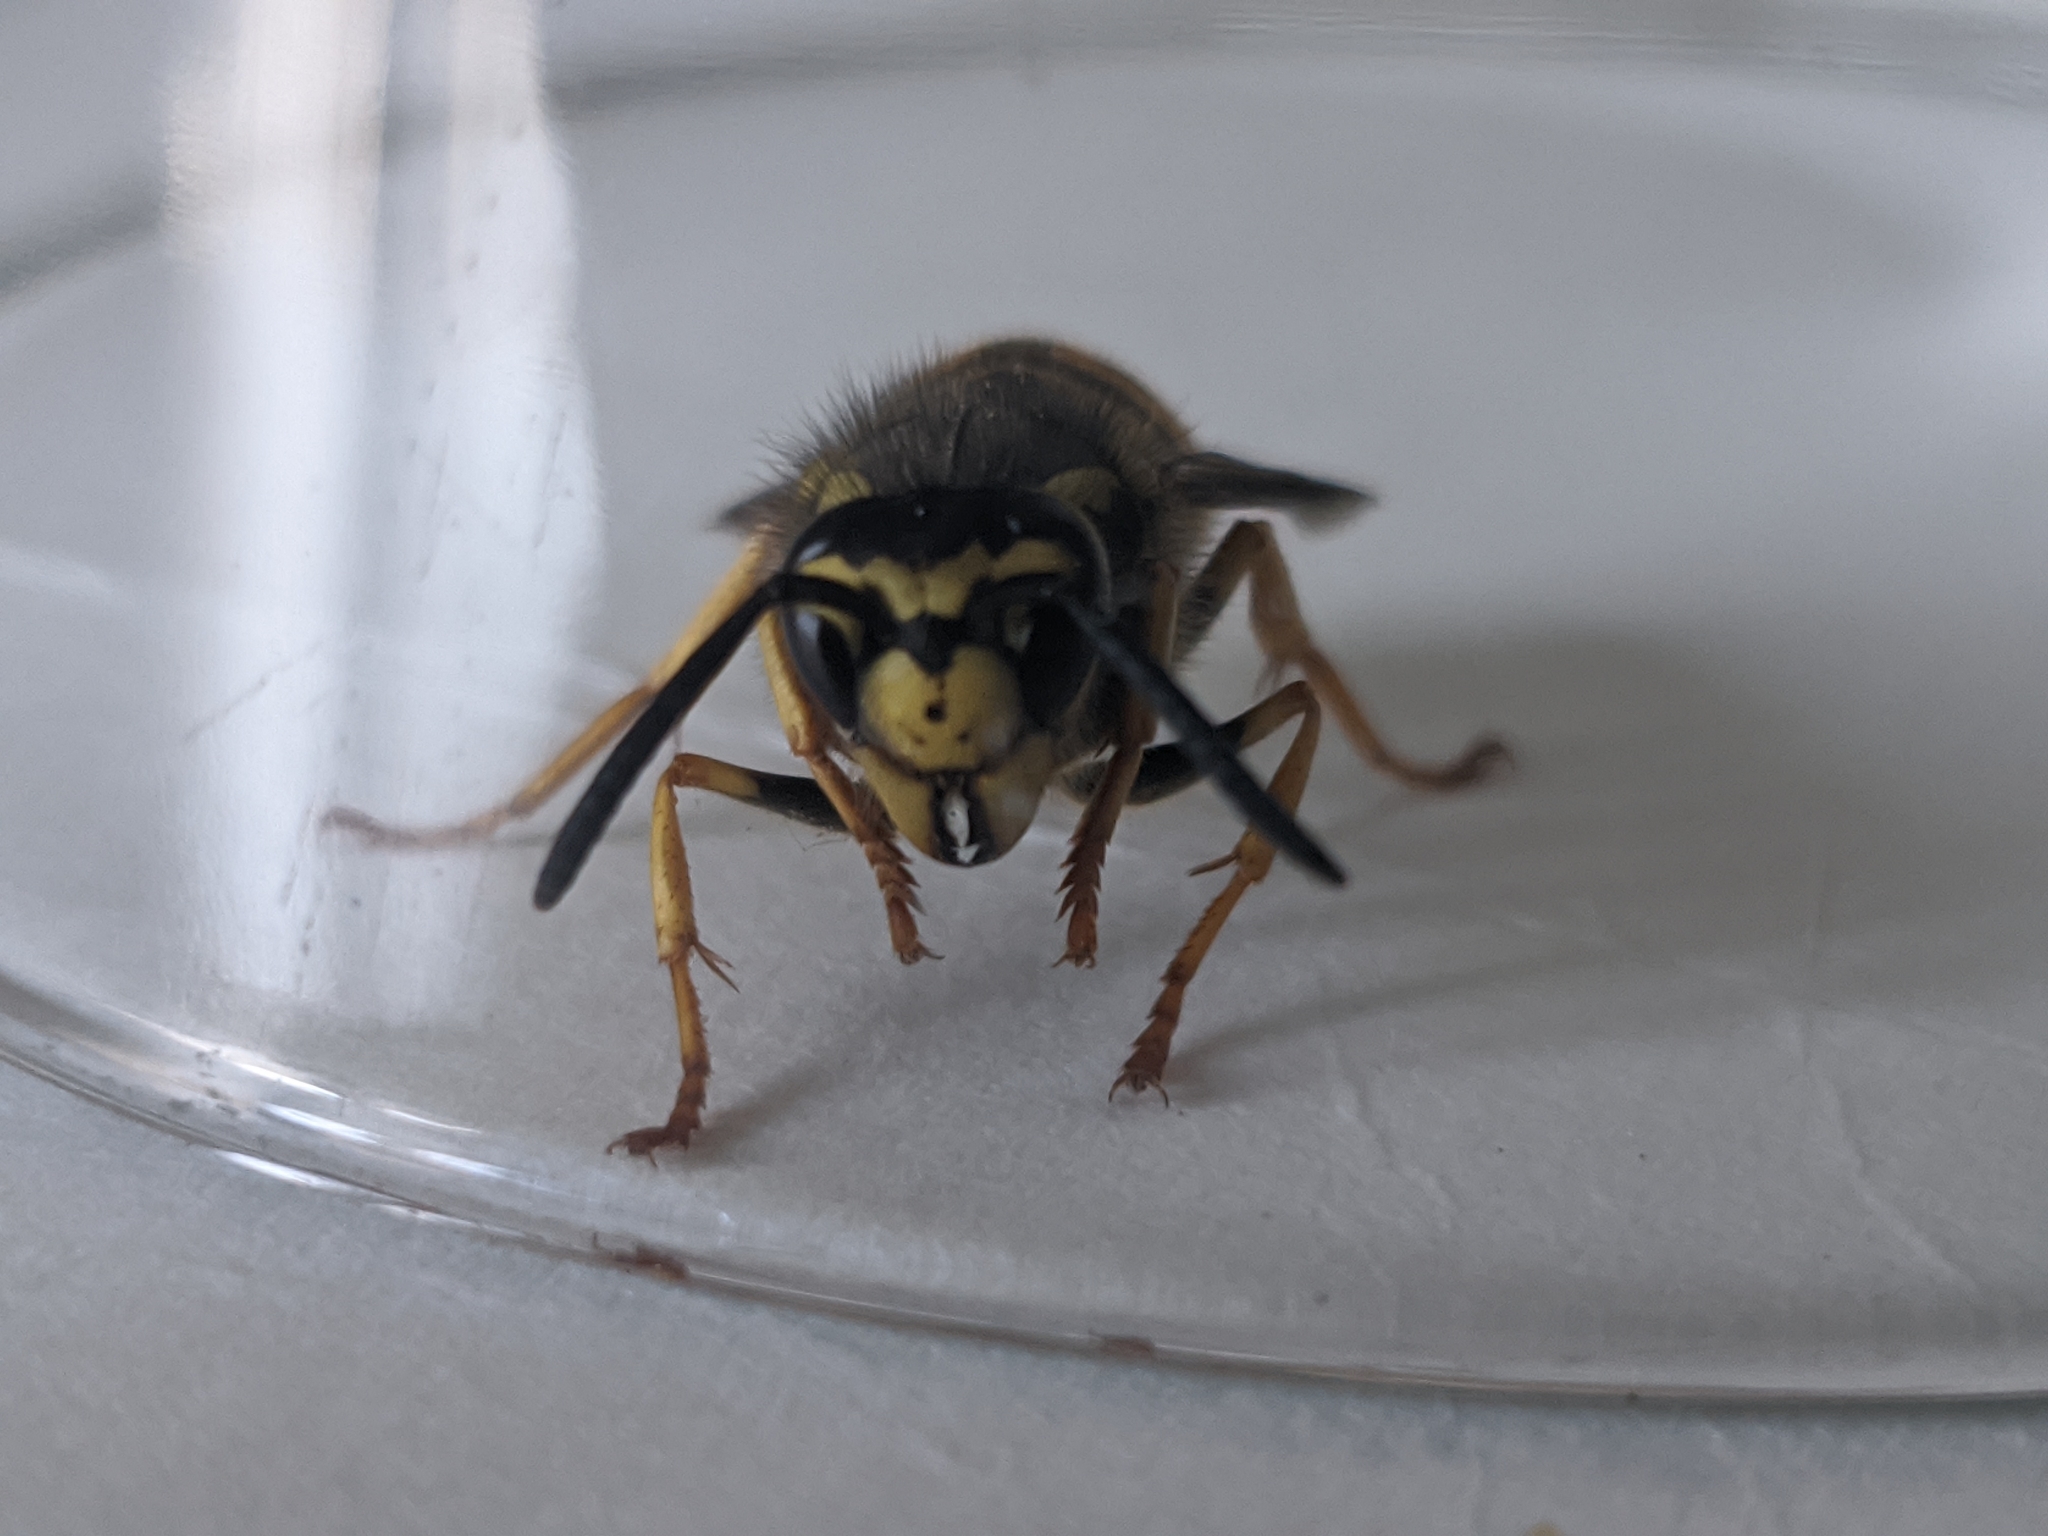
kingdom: Animalia
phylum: Arthropoda
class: Insecta
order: Hymenoptera
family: Vespidae
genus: Vespula
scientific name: Vespula germanica
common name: German wasp
